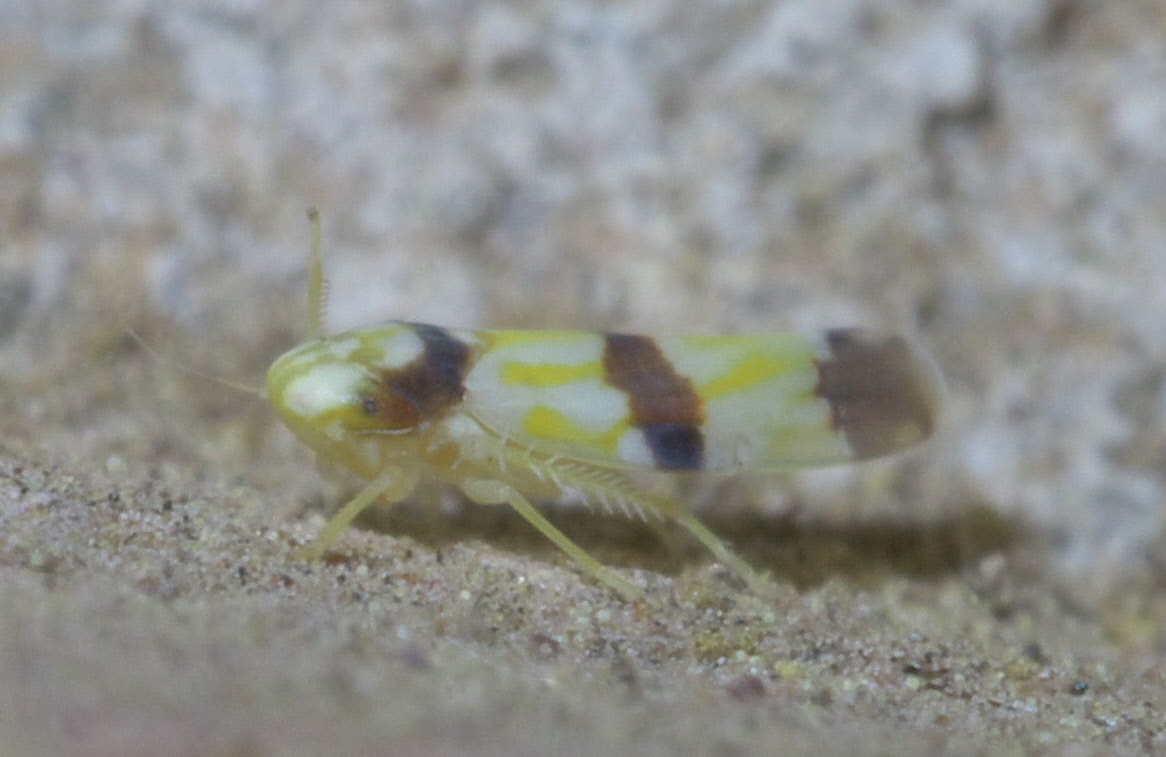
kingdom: Animalia
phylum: Arthropoda
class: Insecta
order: Hemiptera
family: Cicadellidae
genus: Erythroneura
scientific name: Erythroneura calycula
